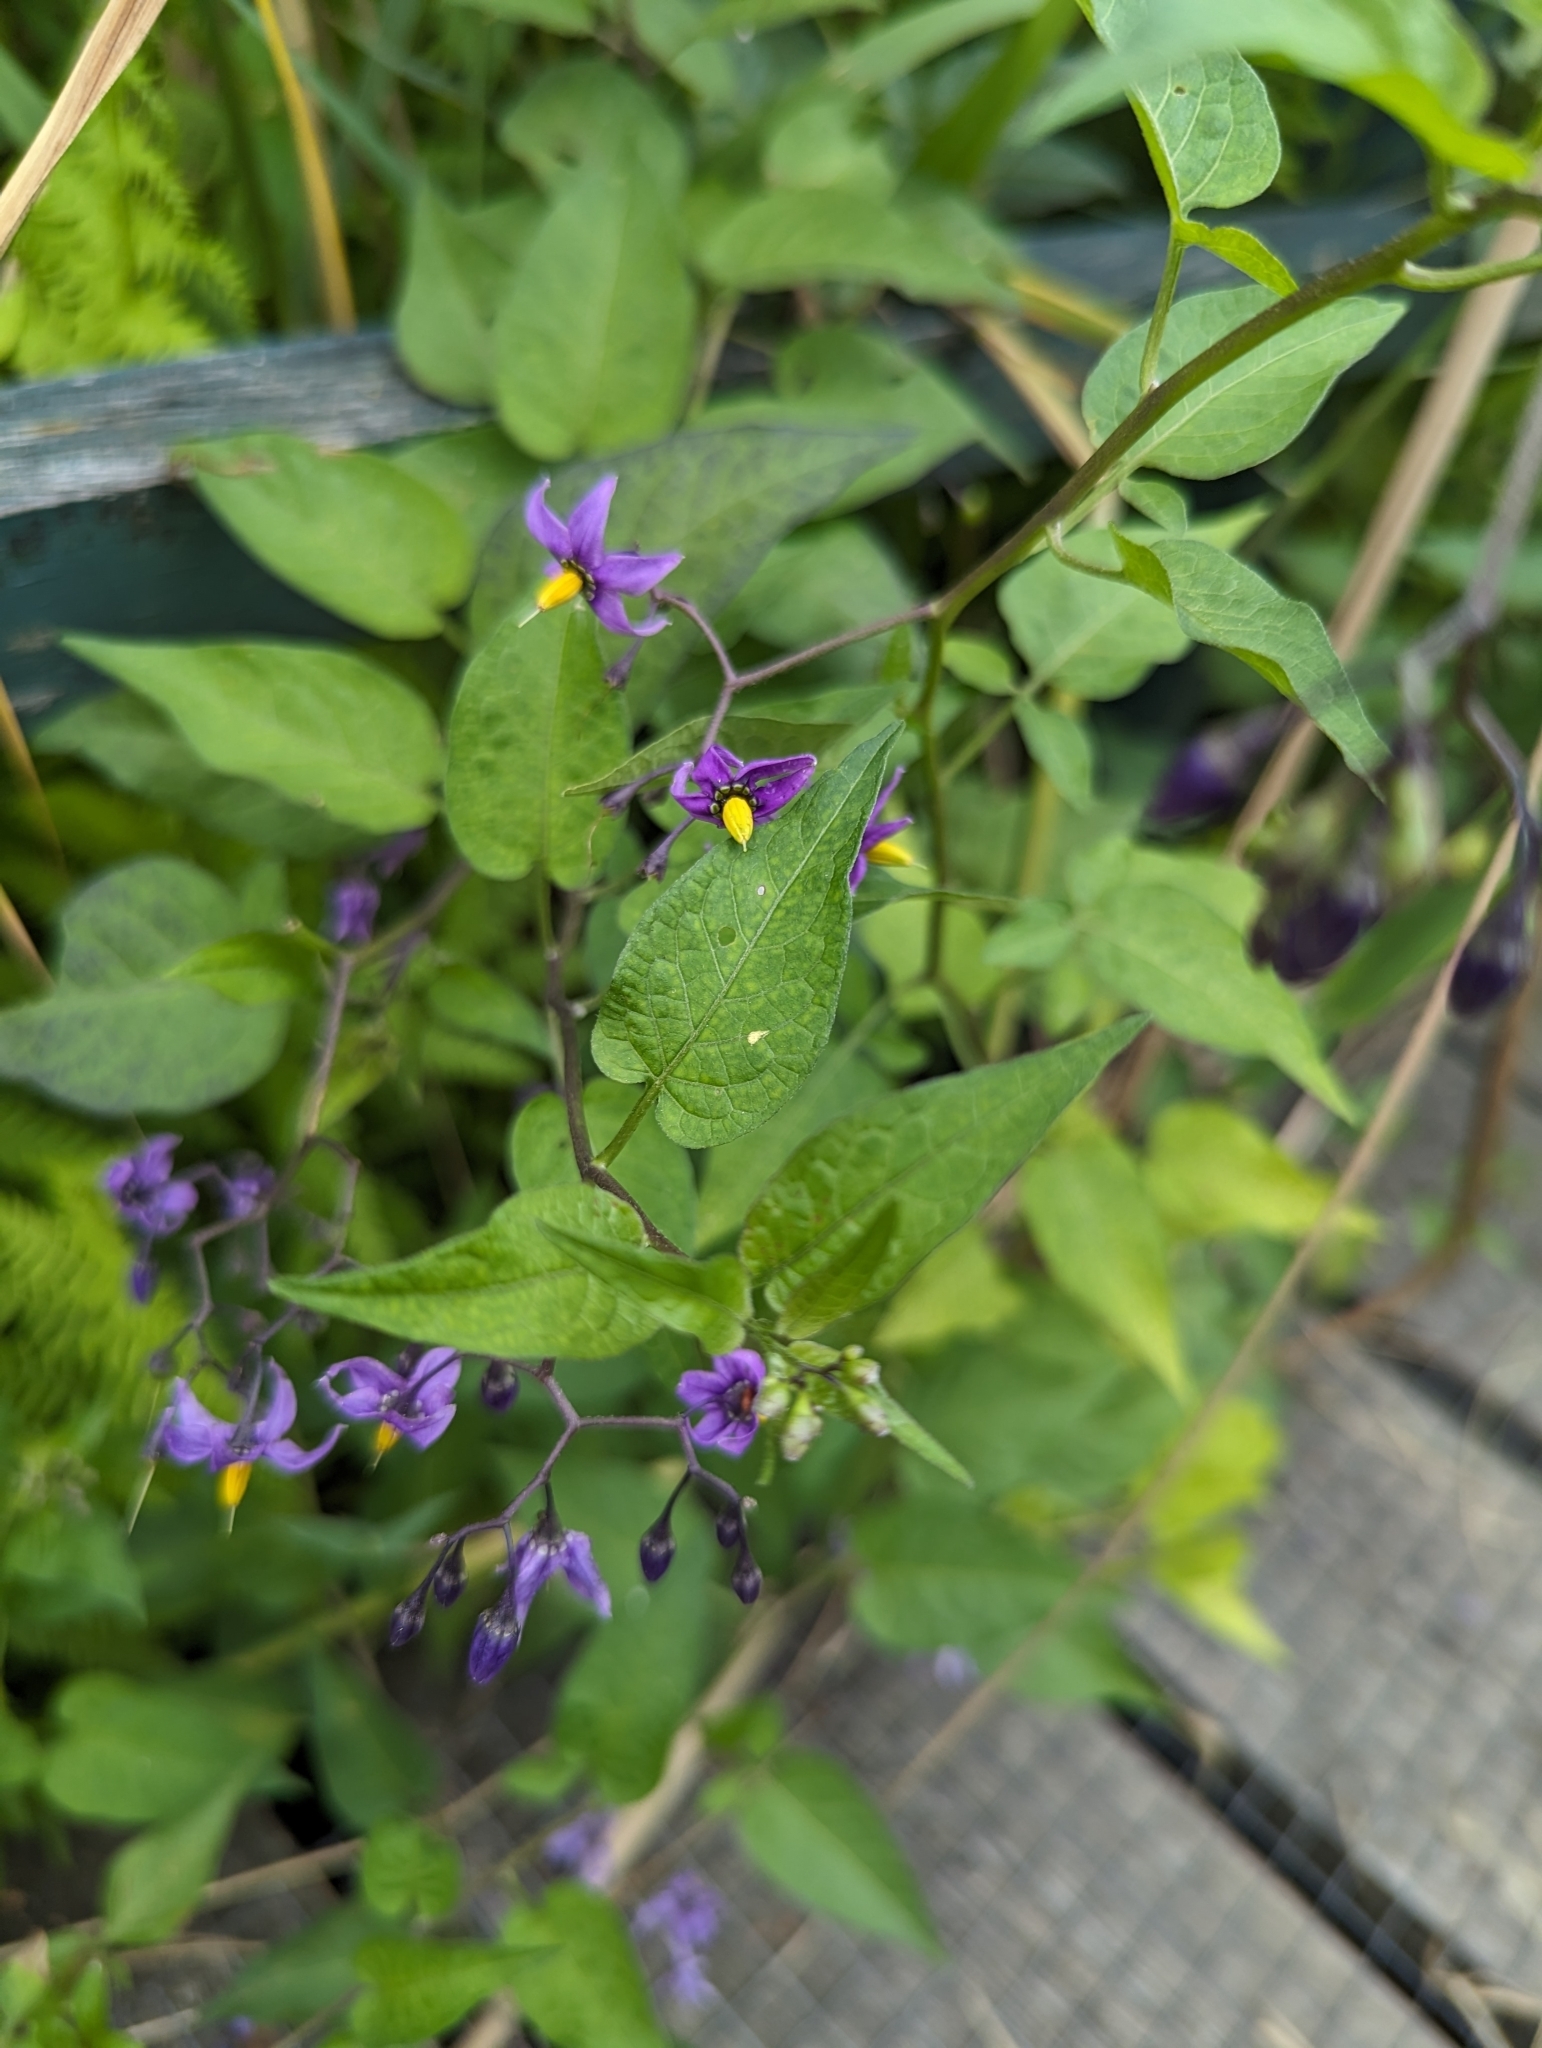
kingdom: Plantae
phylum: Tracheophyta
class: Magnoliopsida
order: Solanales
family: Solanaceae
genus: Solanum
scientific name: Solanum dulcamara
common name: Climbing nightshade
